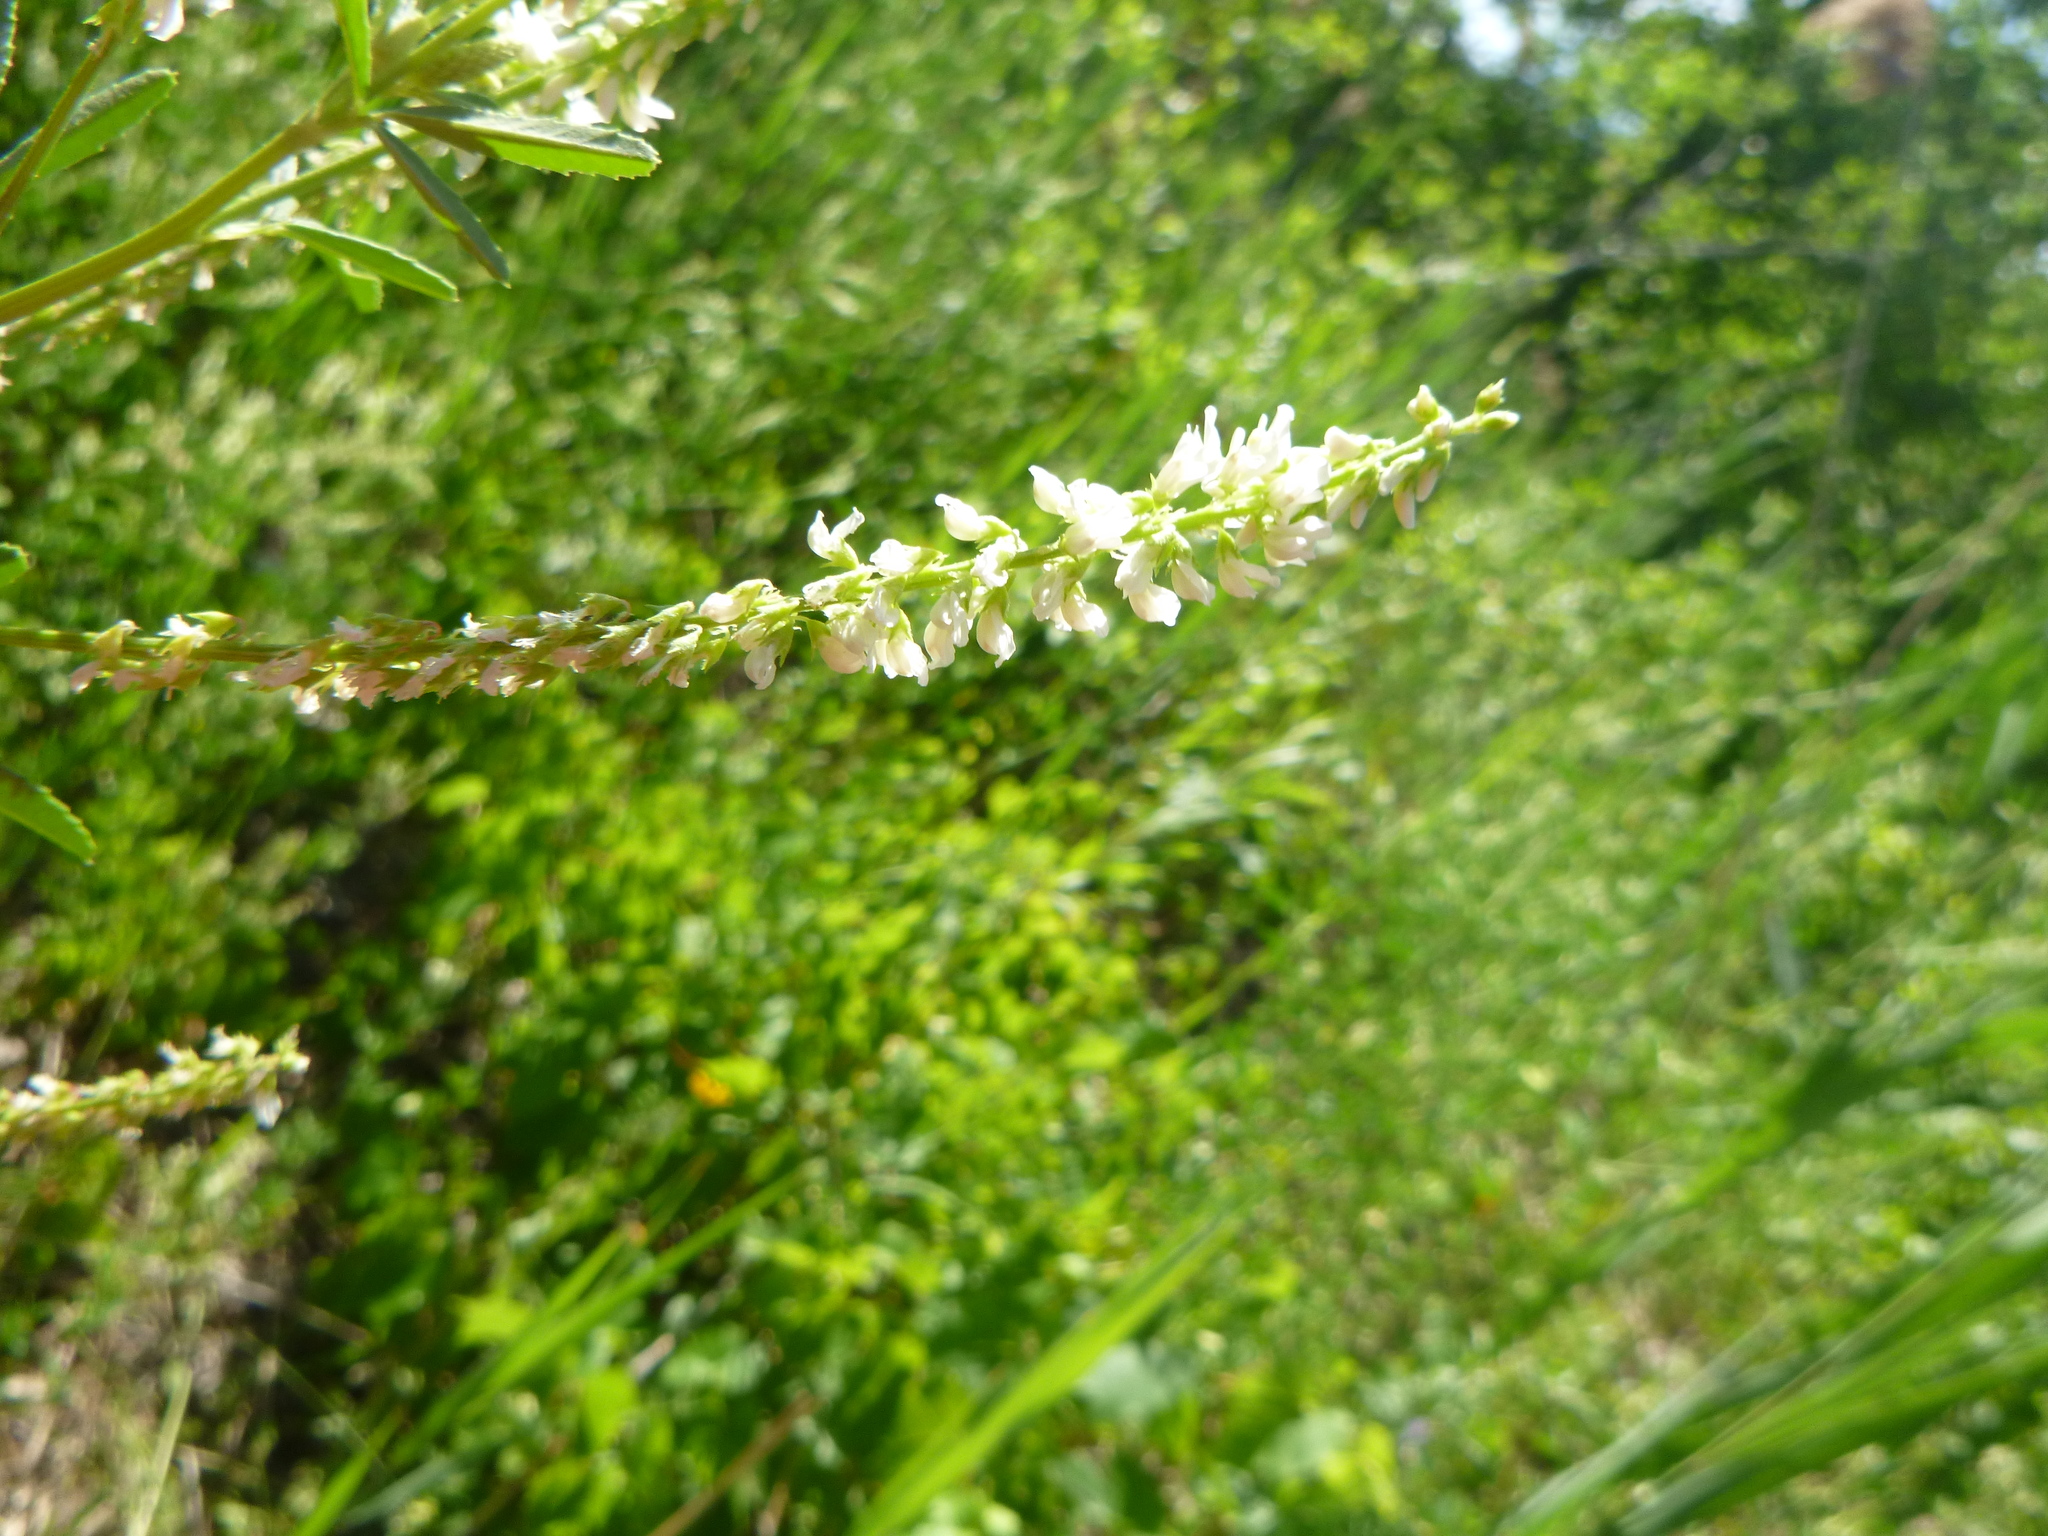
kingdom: Plantae
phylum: Tracheophyta
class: Magnoliopsida
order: Fabales
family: Fabaceae
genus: Melilotus
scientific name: Melilotus albus
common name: White melilot
